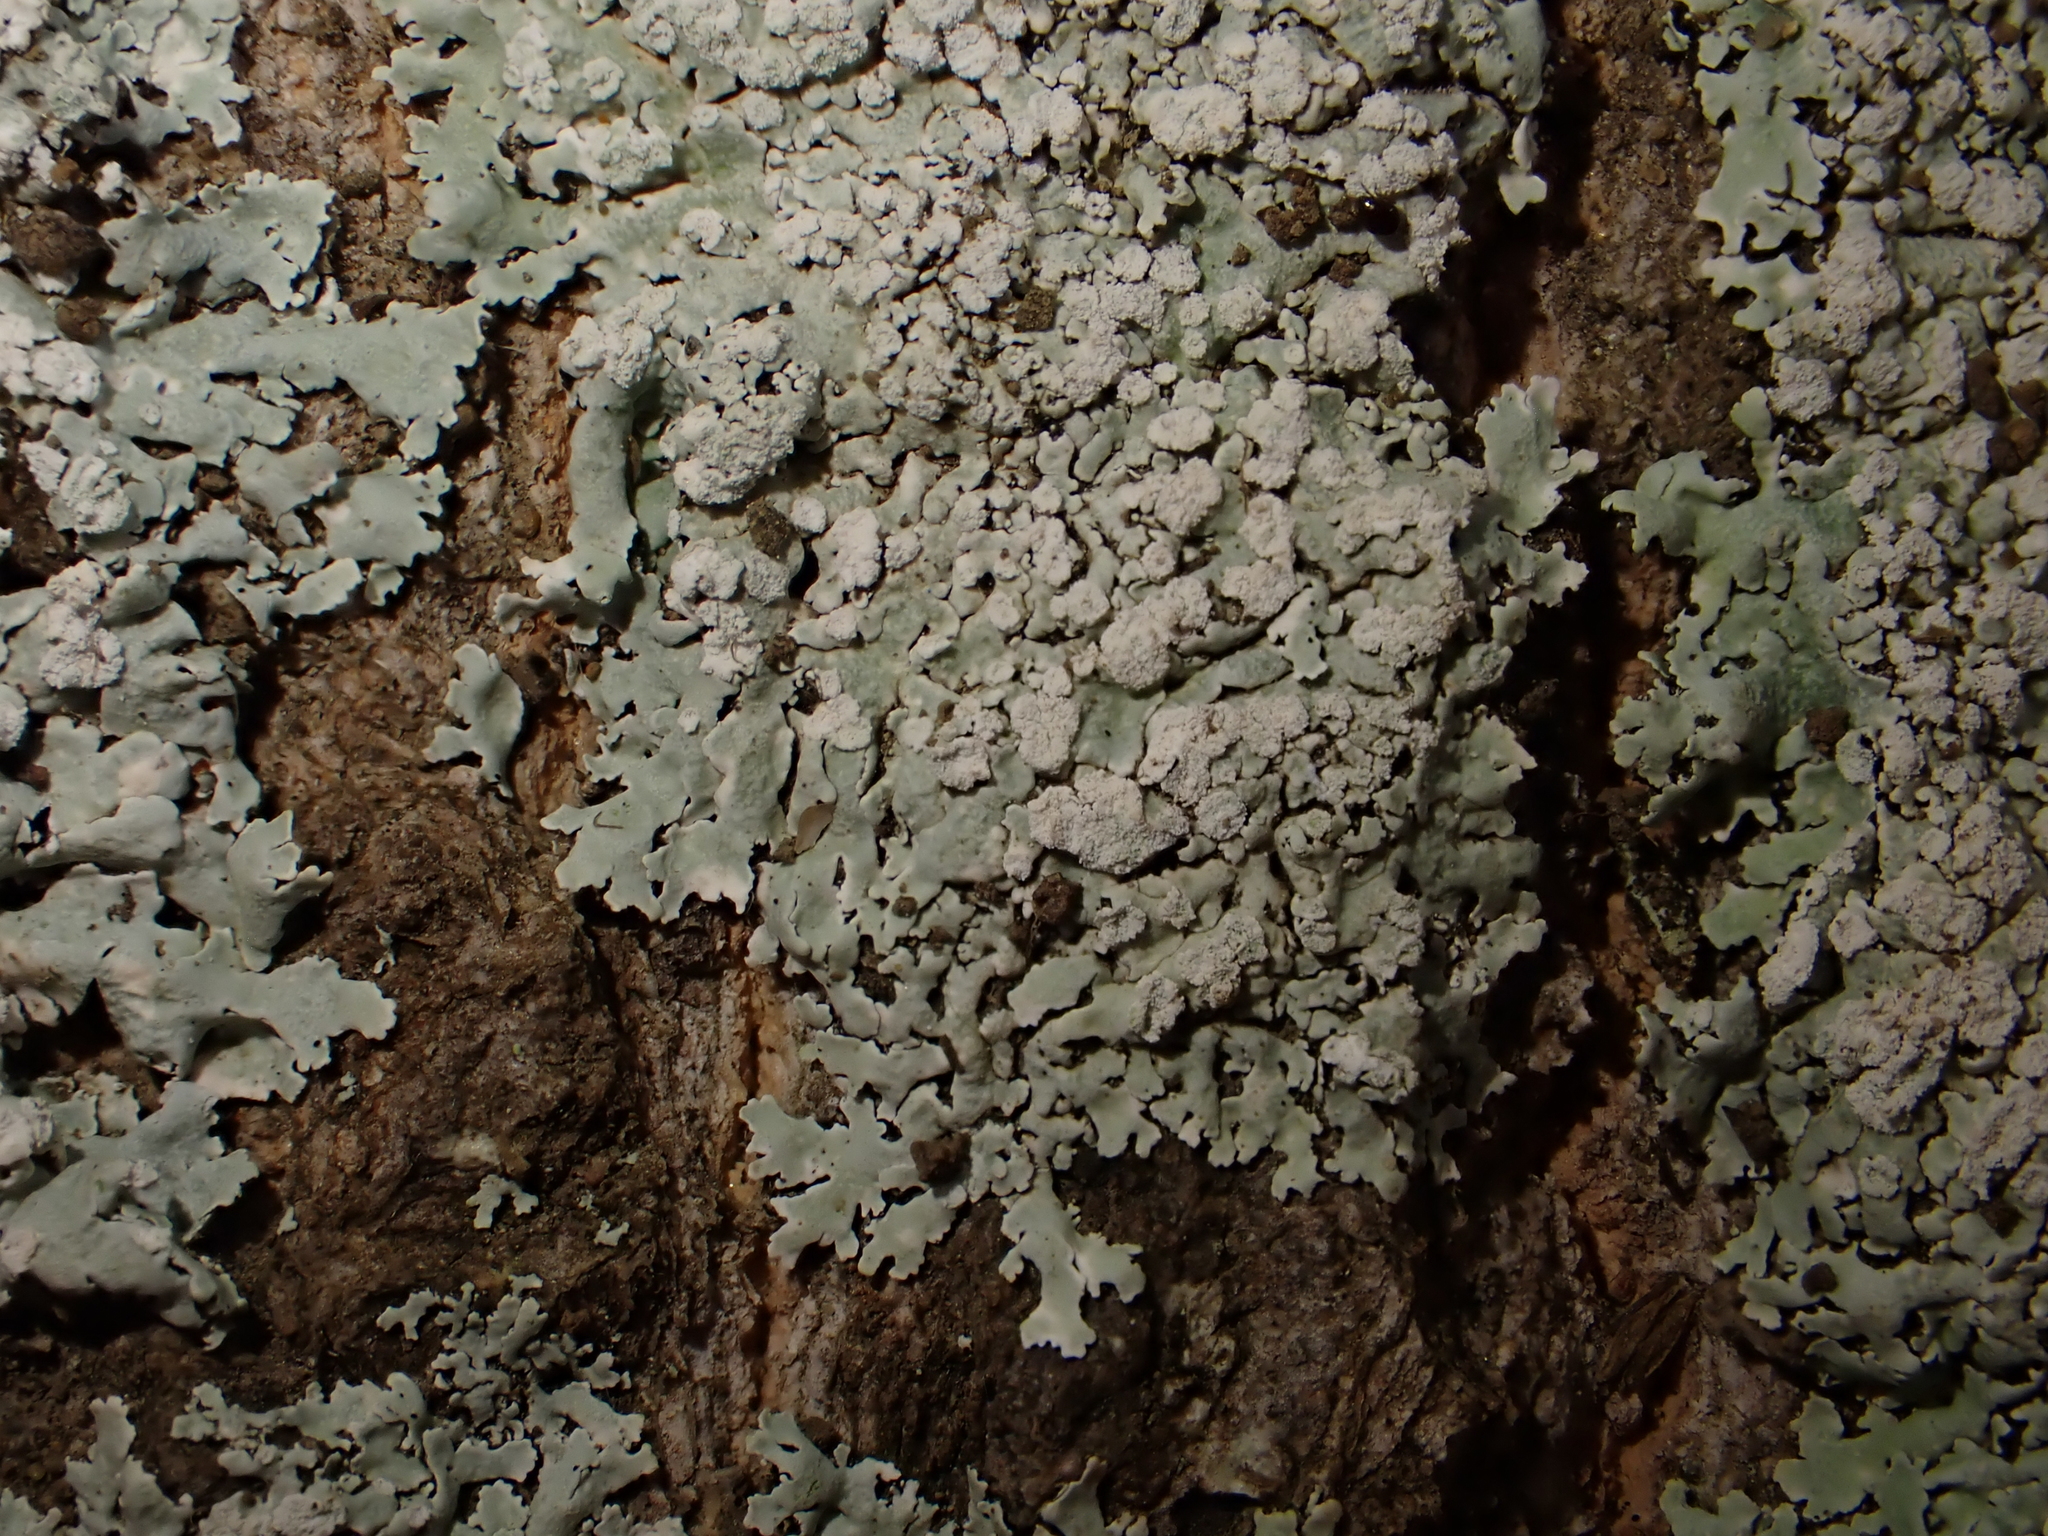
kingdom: Fungi
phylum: Ascomycota
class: Lecanoromycetes
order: Caliciales
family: Physciaceae
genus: Heterodermia
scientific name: Heterodermia speciosa
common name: Powdered fringe lichen
